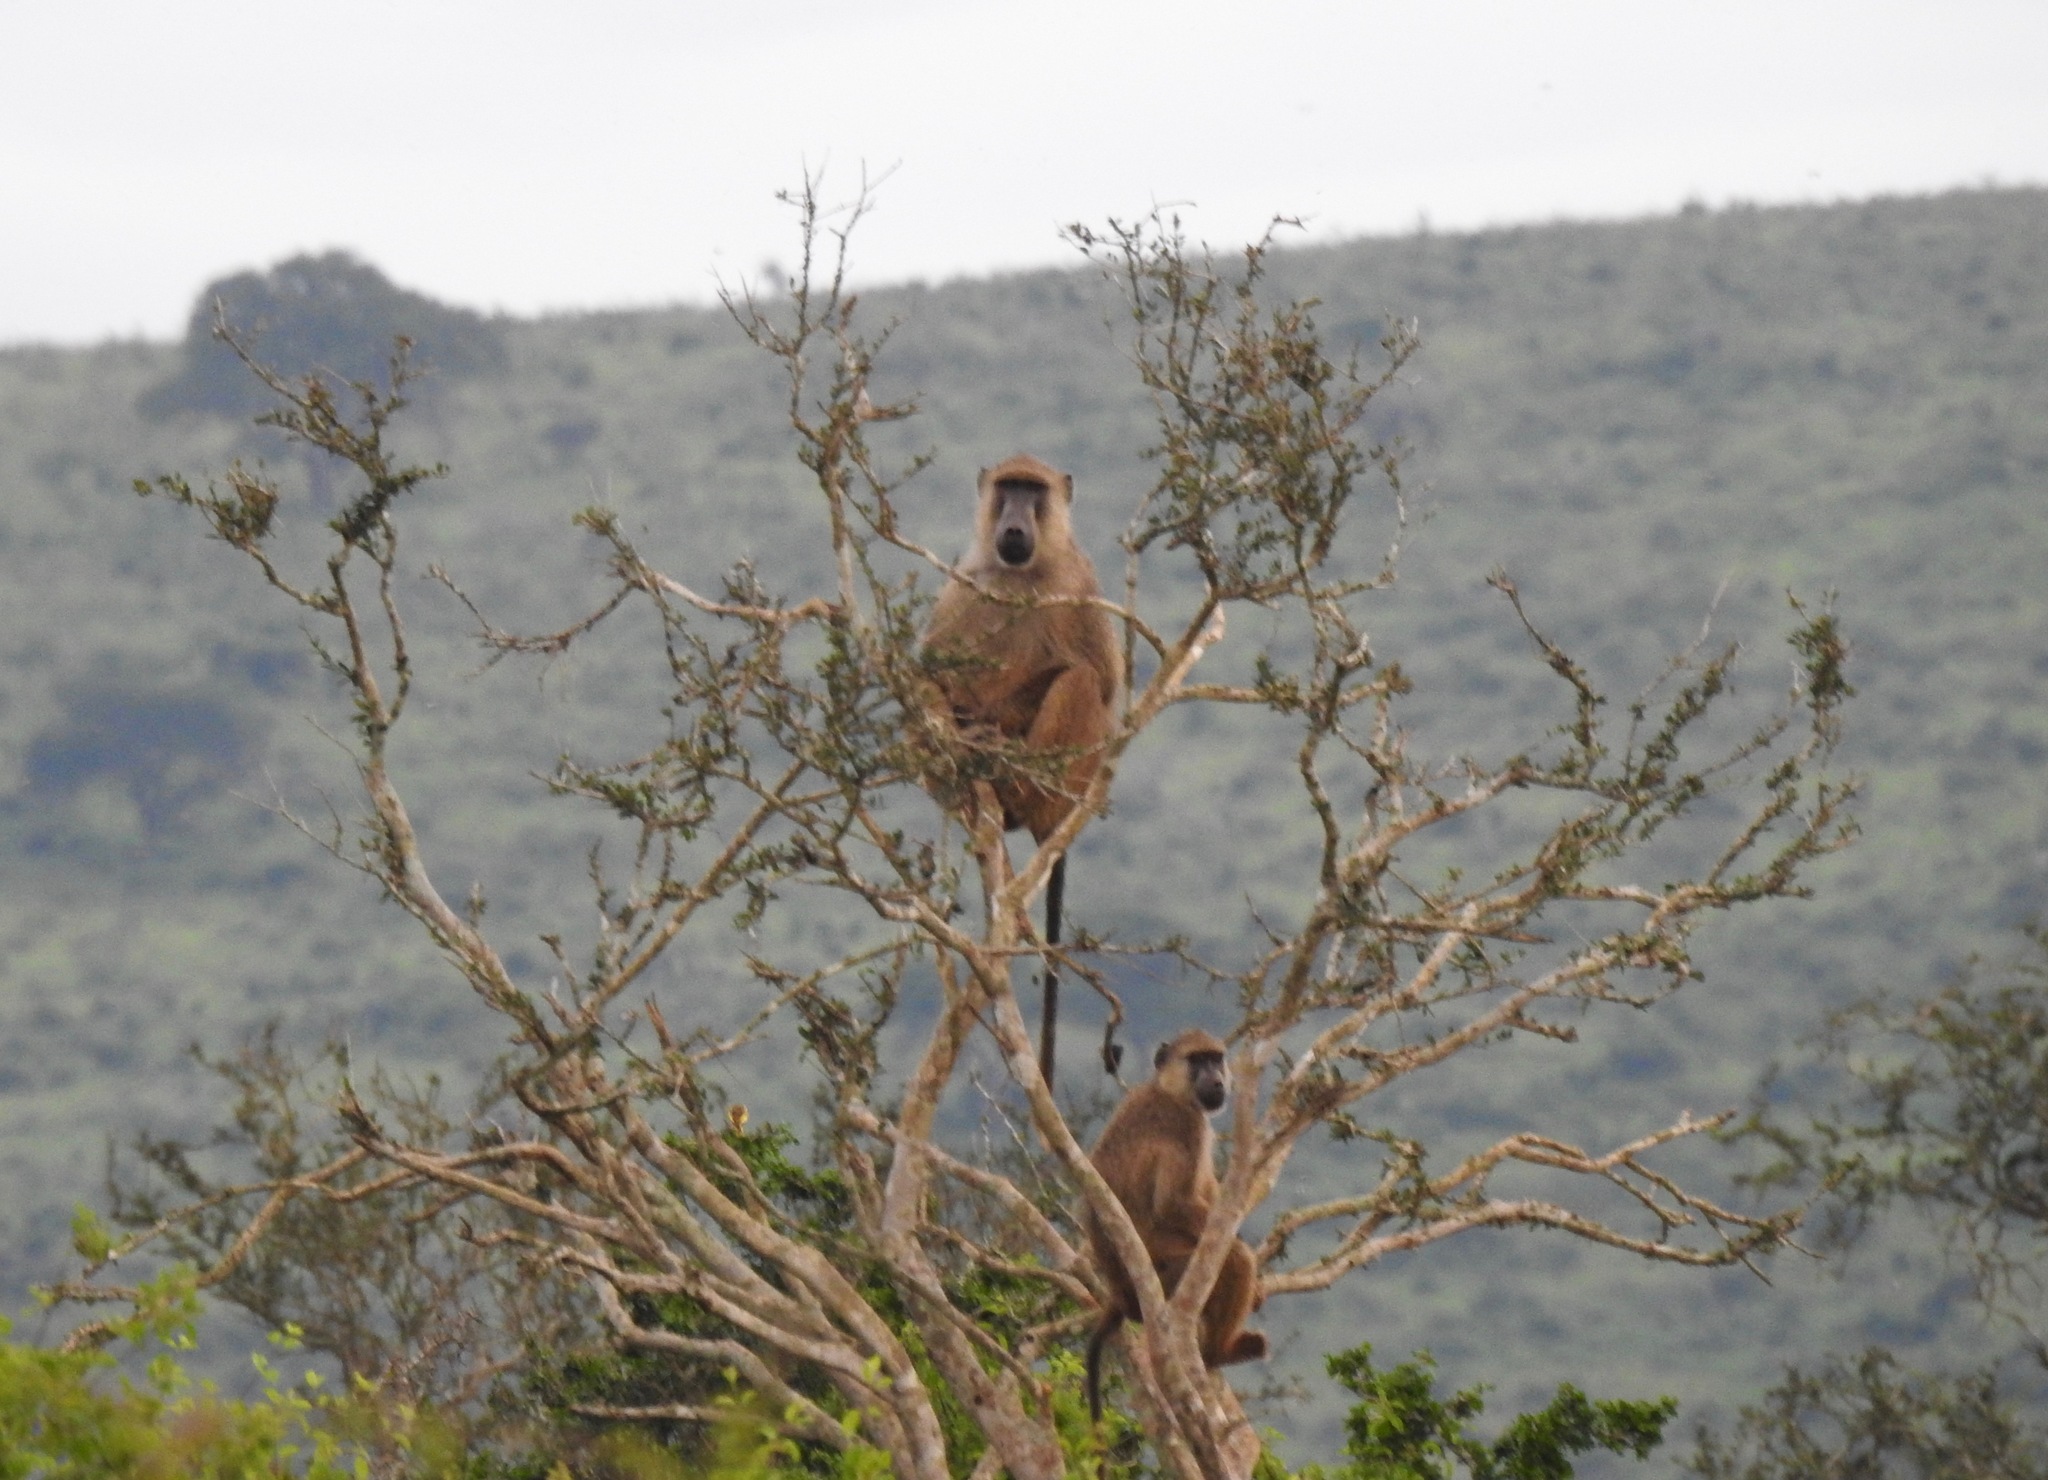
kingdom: Animalia
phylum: Chordata
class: Mammalia
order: Primates
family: Cercopithecidae
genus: Papio
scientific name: Papio cynocephalus
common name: Yellow baboon
